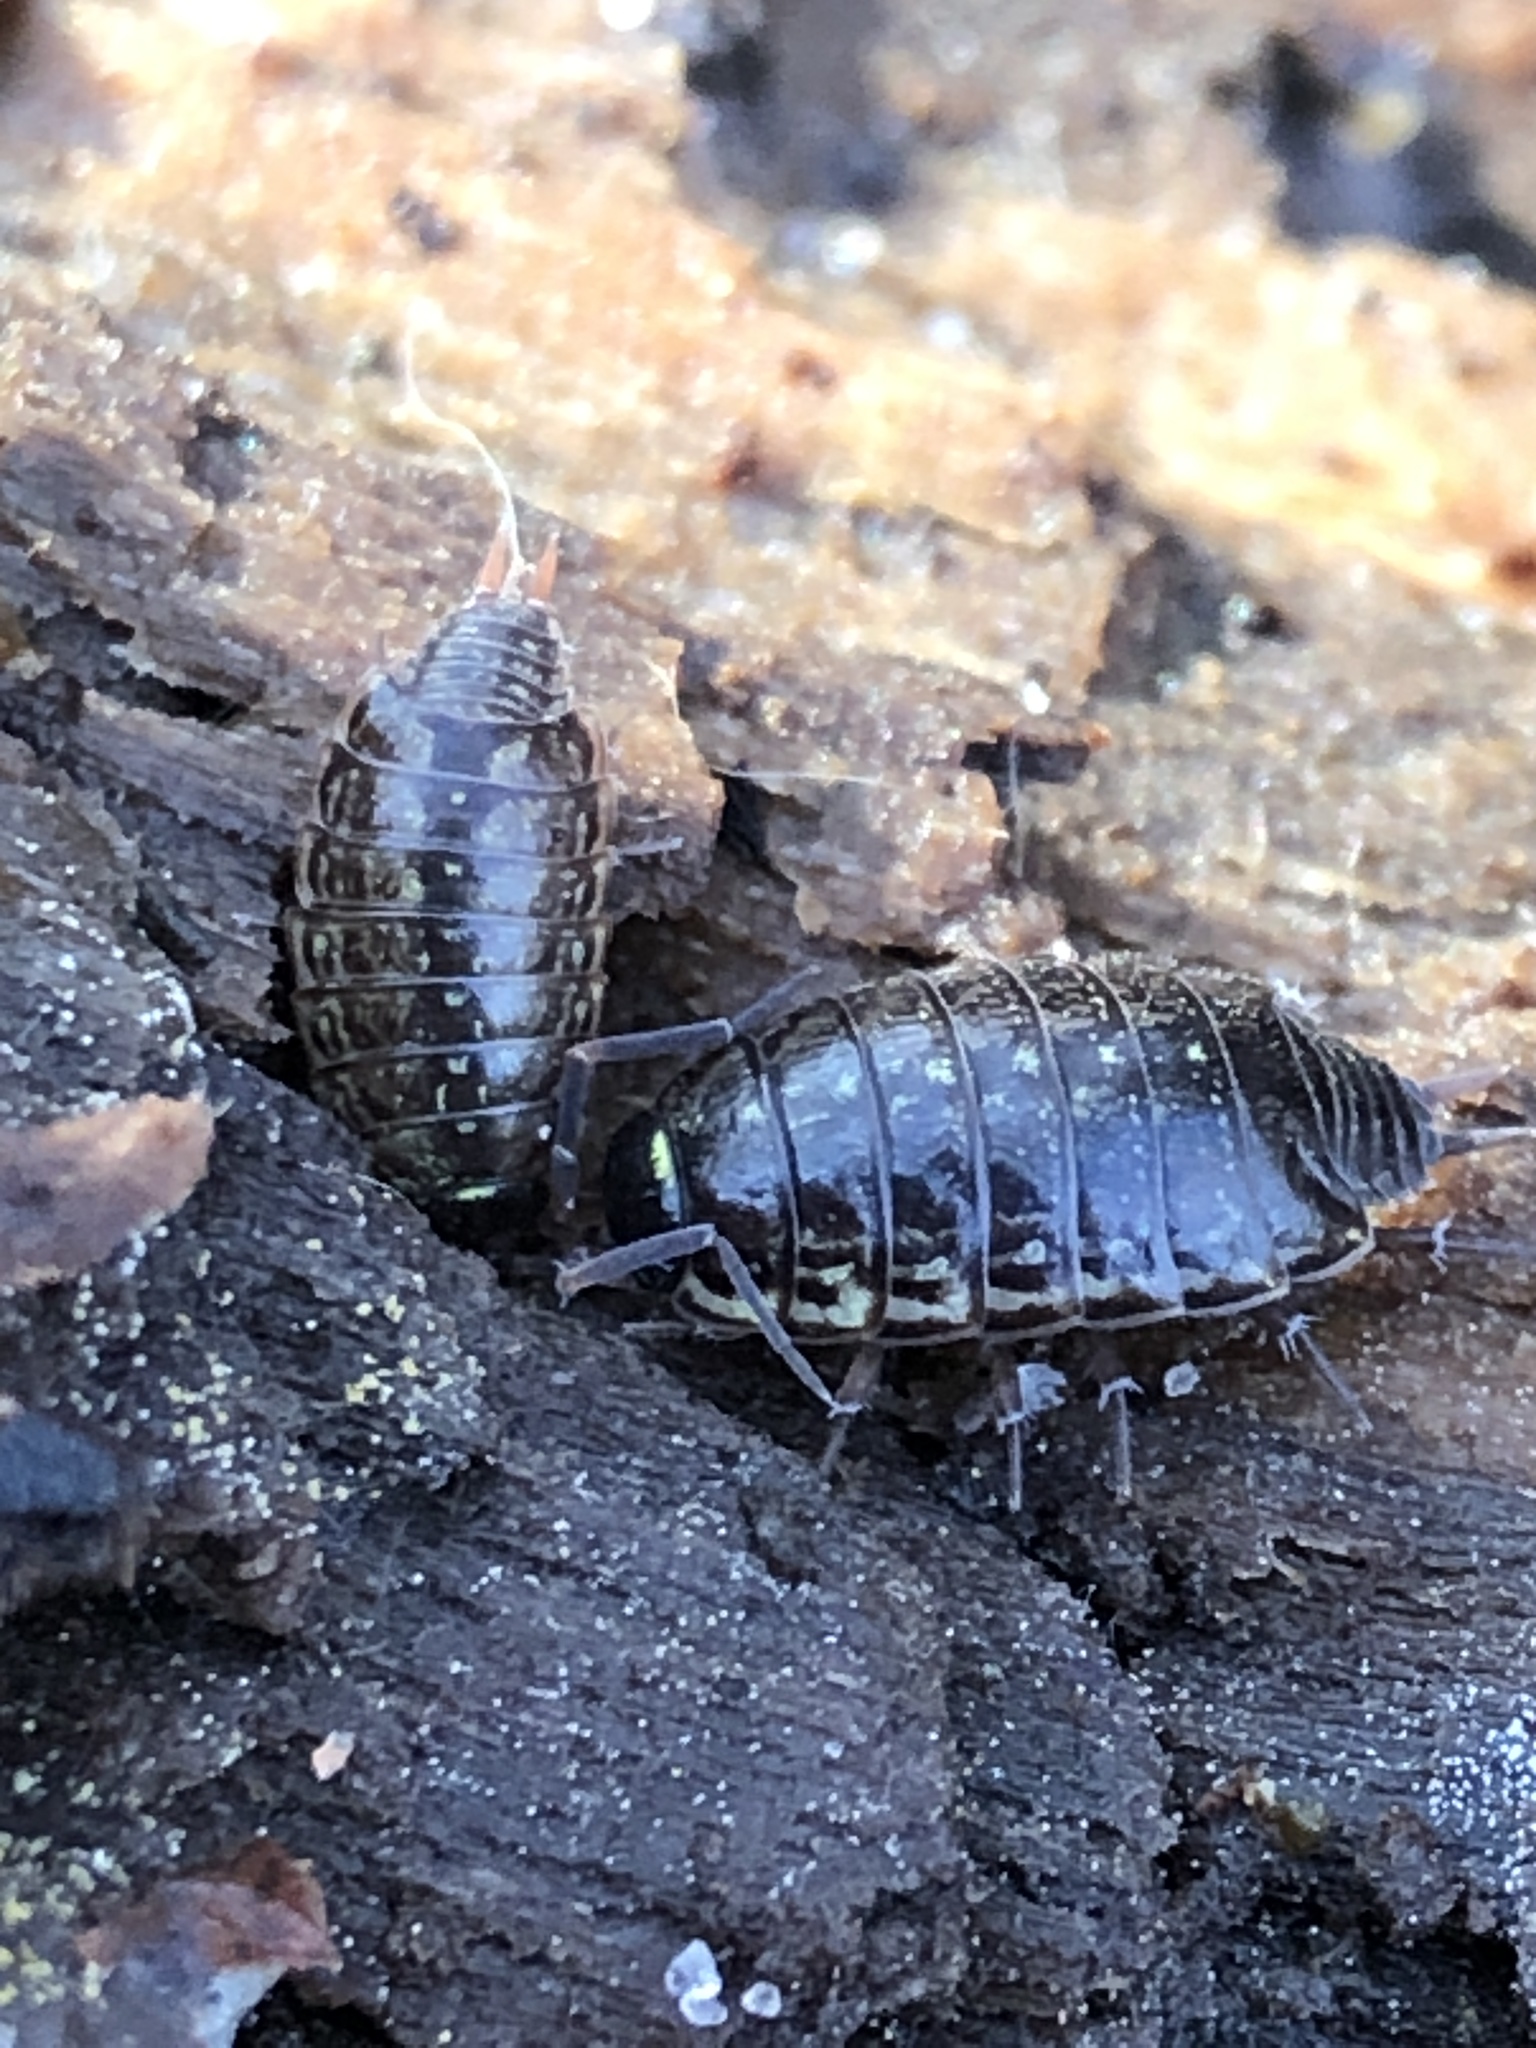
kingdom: Animalia
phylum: Arthropoda
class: Malacostraca
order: Isopoda
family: Philosciidae
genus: Philoscia
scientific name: Philoscia muscorum
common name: Common striped woodlouse
